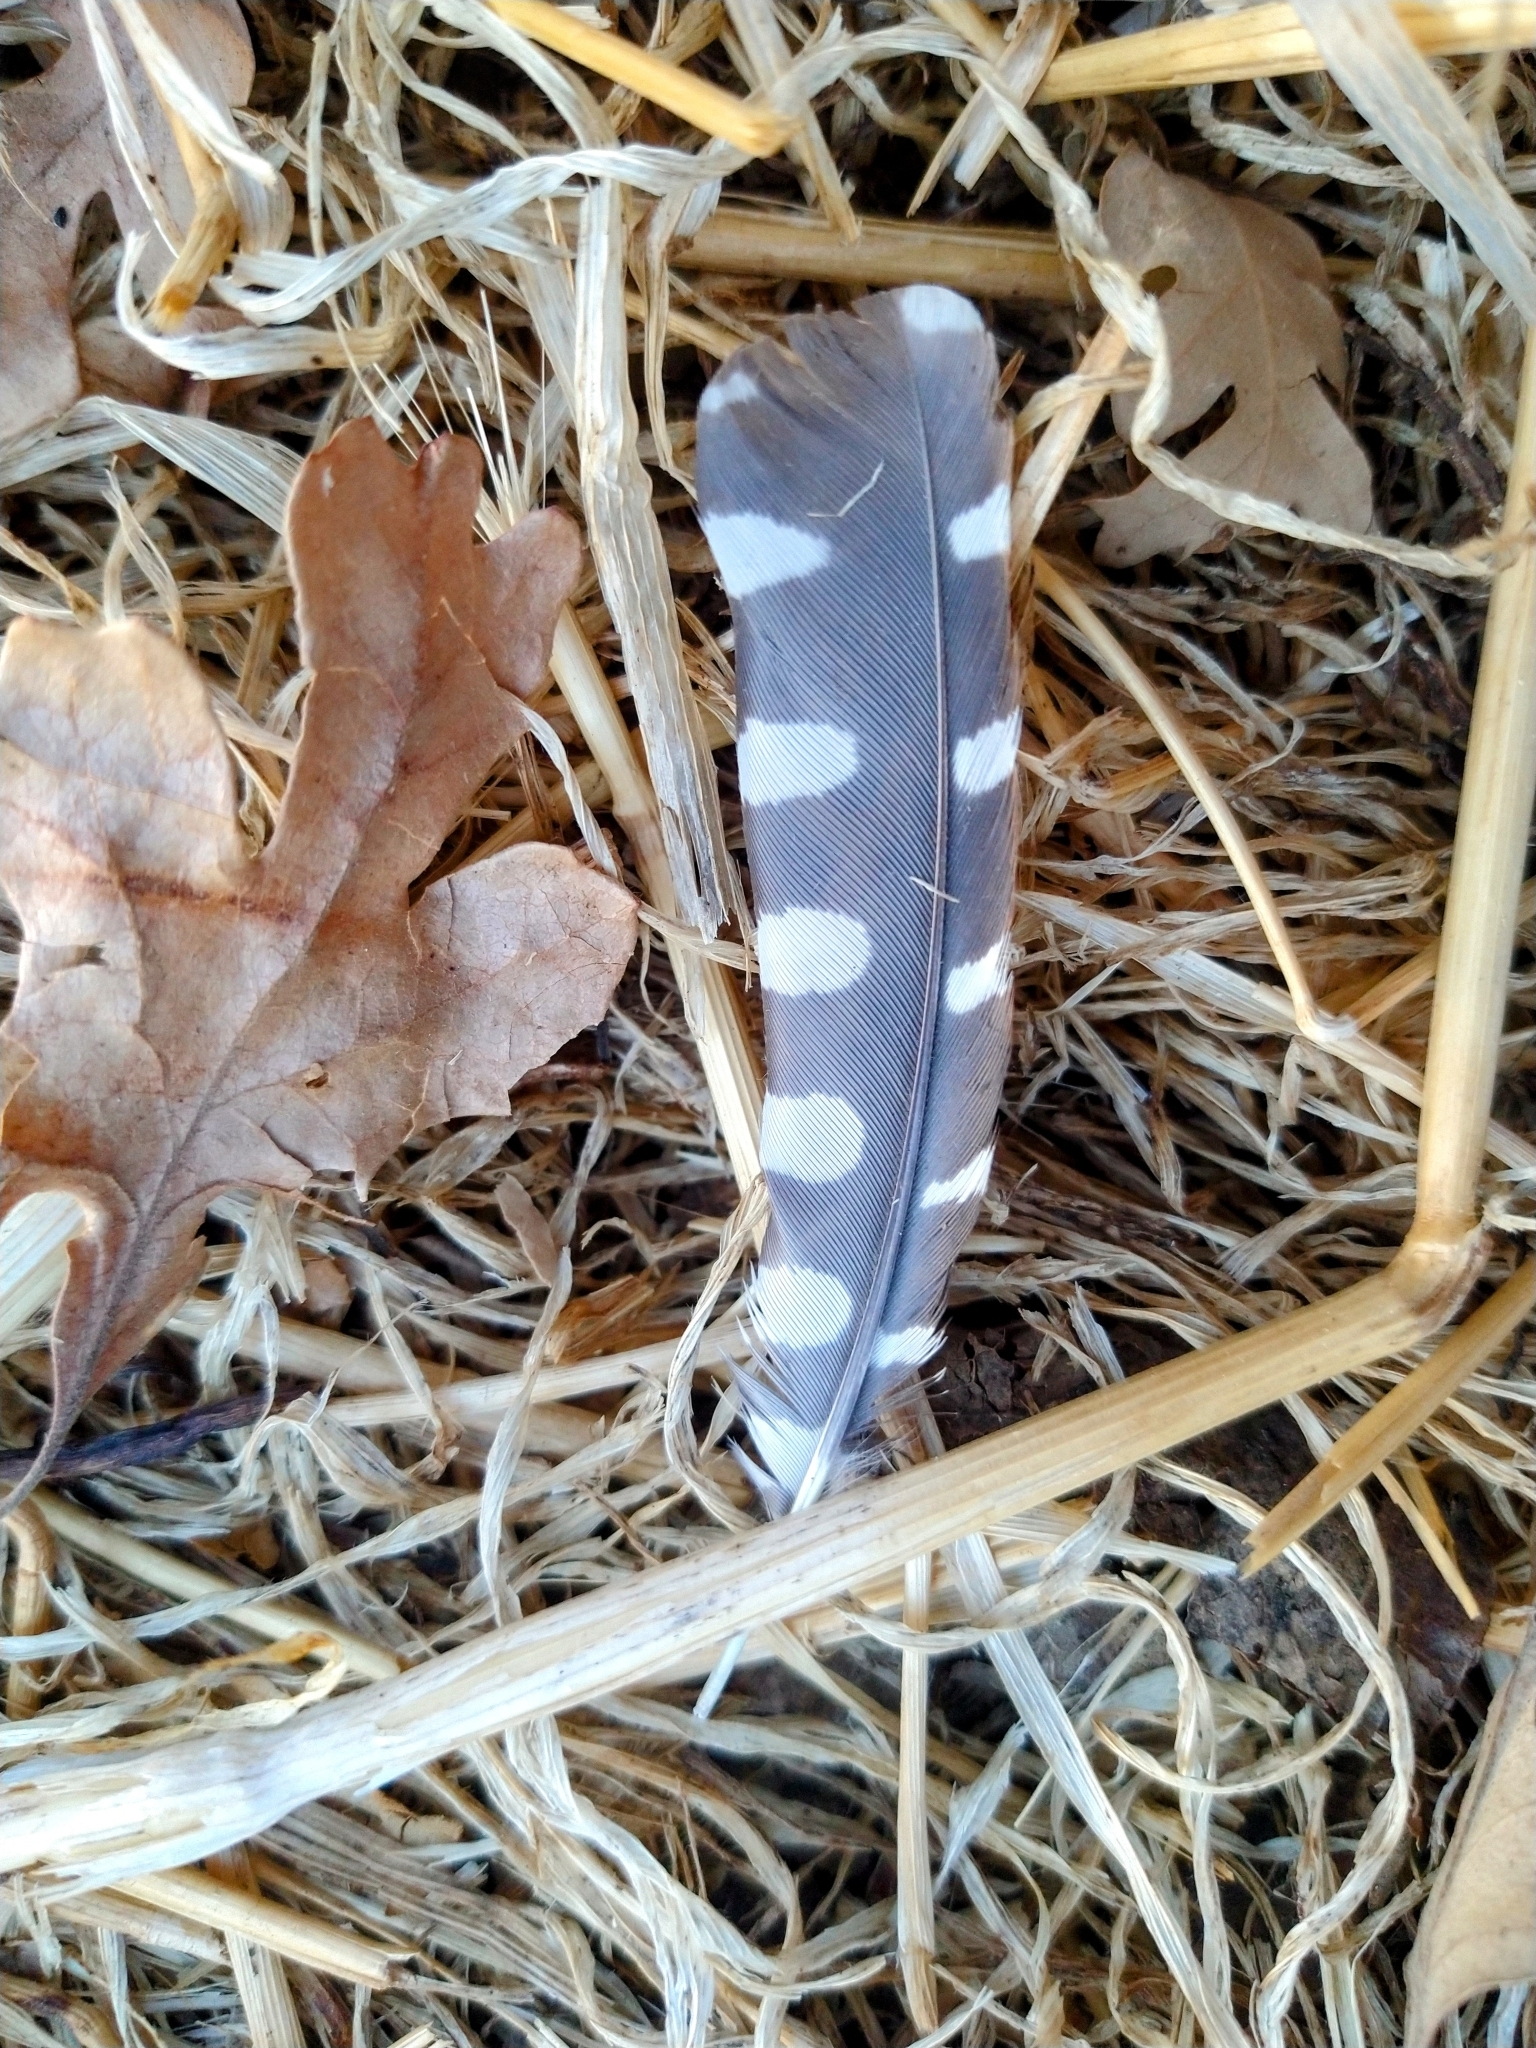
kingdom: Animalia
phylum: Chordata
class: Aves
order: Piciformes
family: Picidae
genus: Dryobates
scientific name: Dryobates nuttallii
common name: Nuttall's woodpecker
